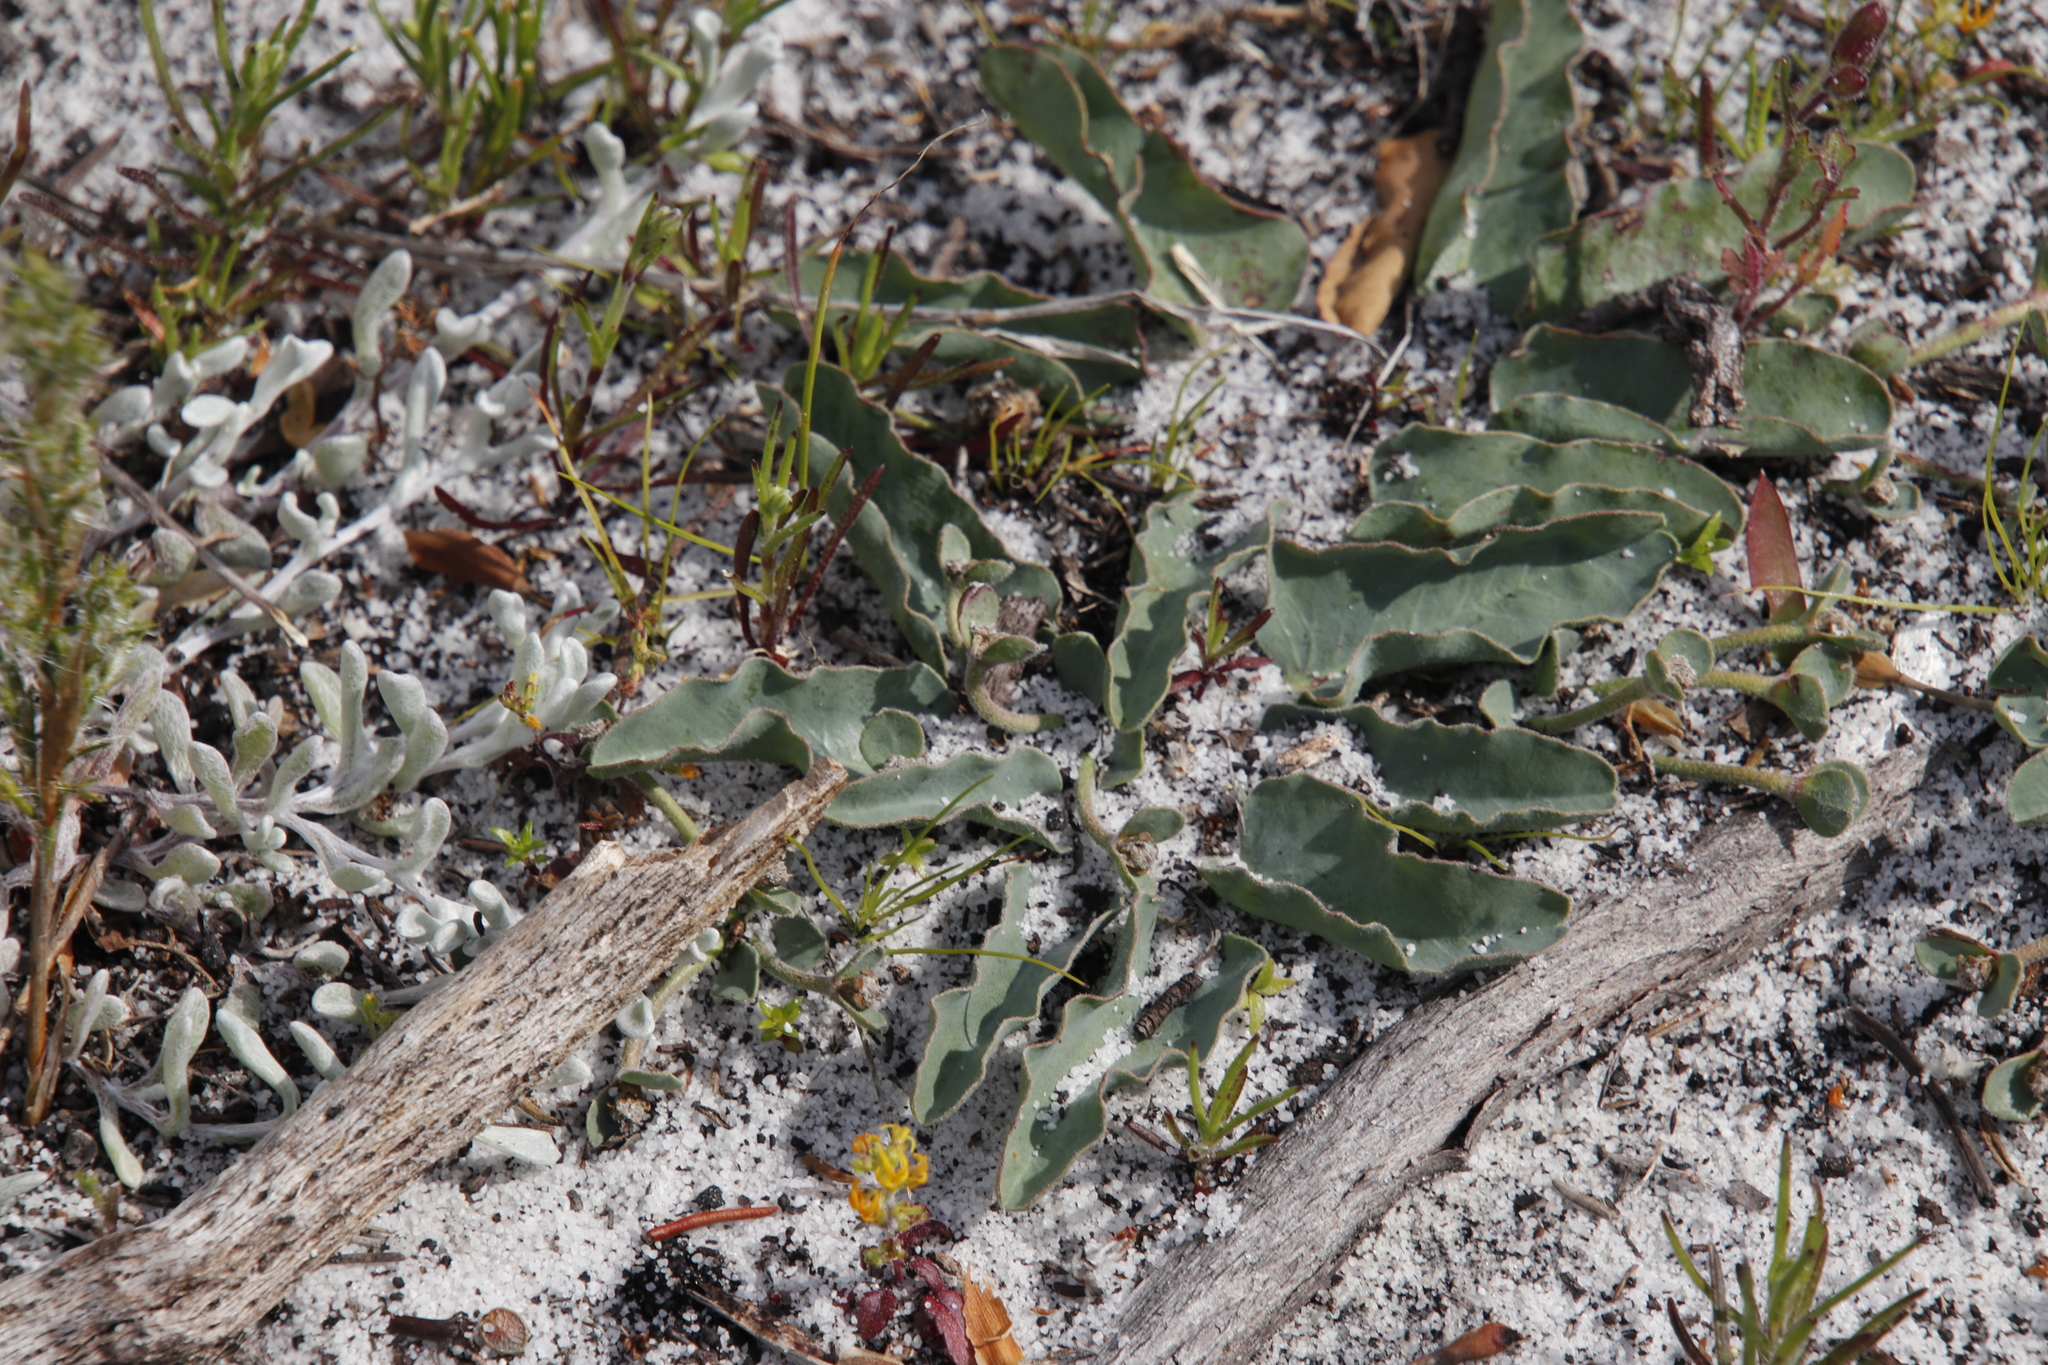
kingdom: Plantae
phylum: Tracheophyta
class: Magnoliopsida
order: Malpighiales
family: Euphorbiaceae
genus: Euphorbia
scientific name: Euphorbia tuberosa
